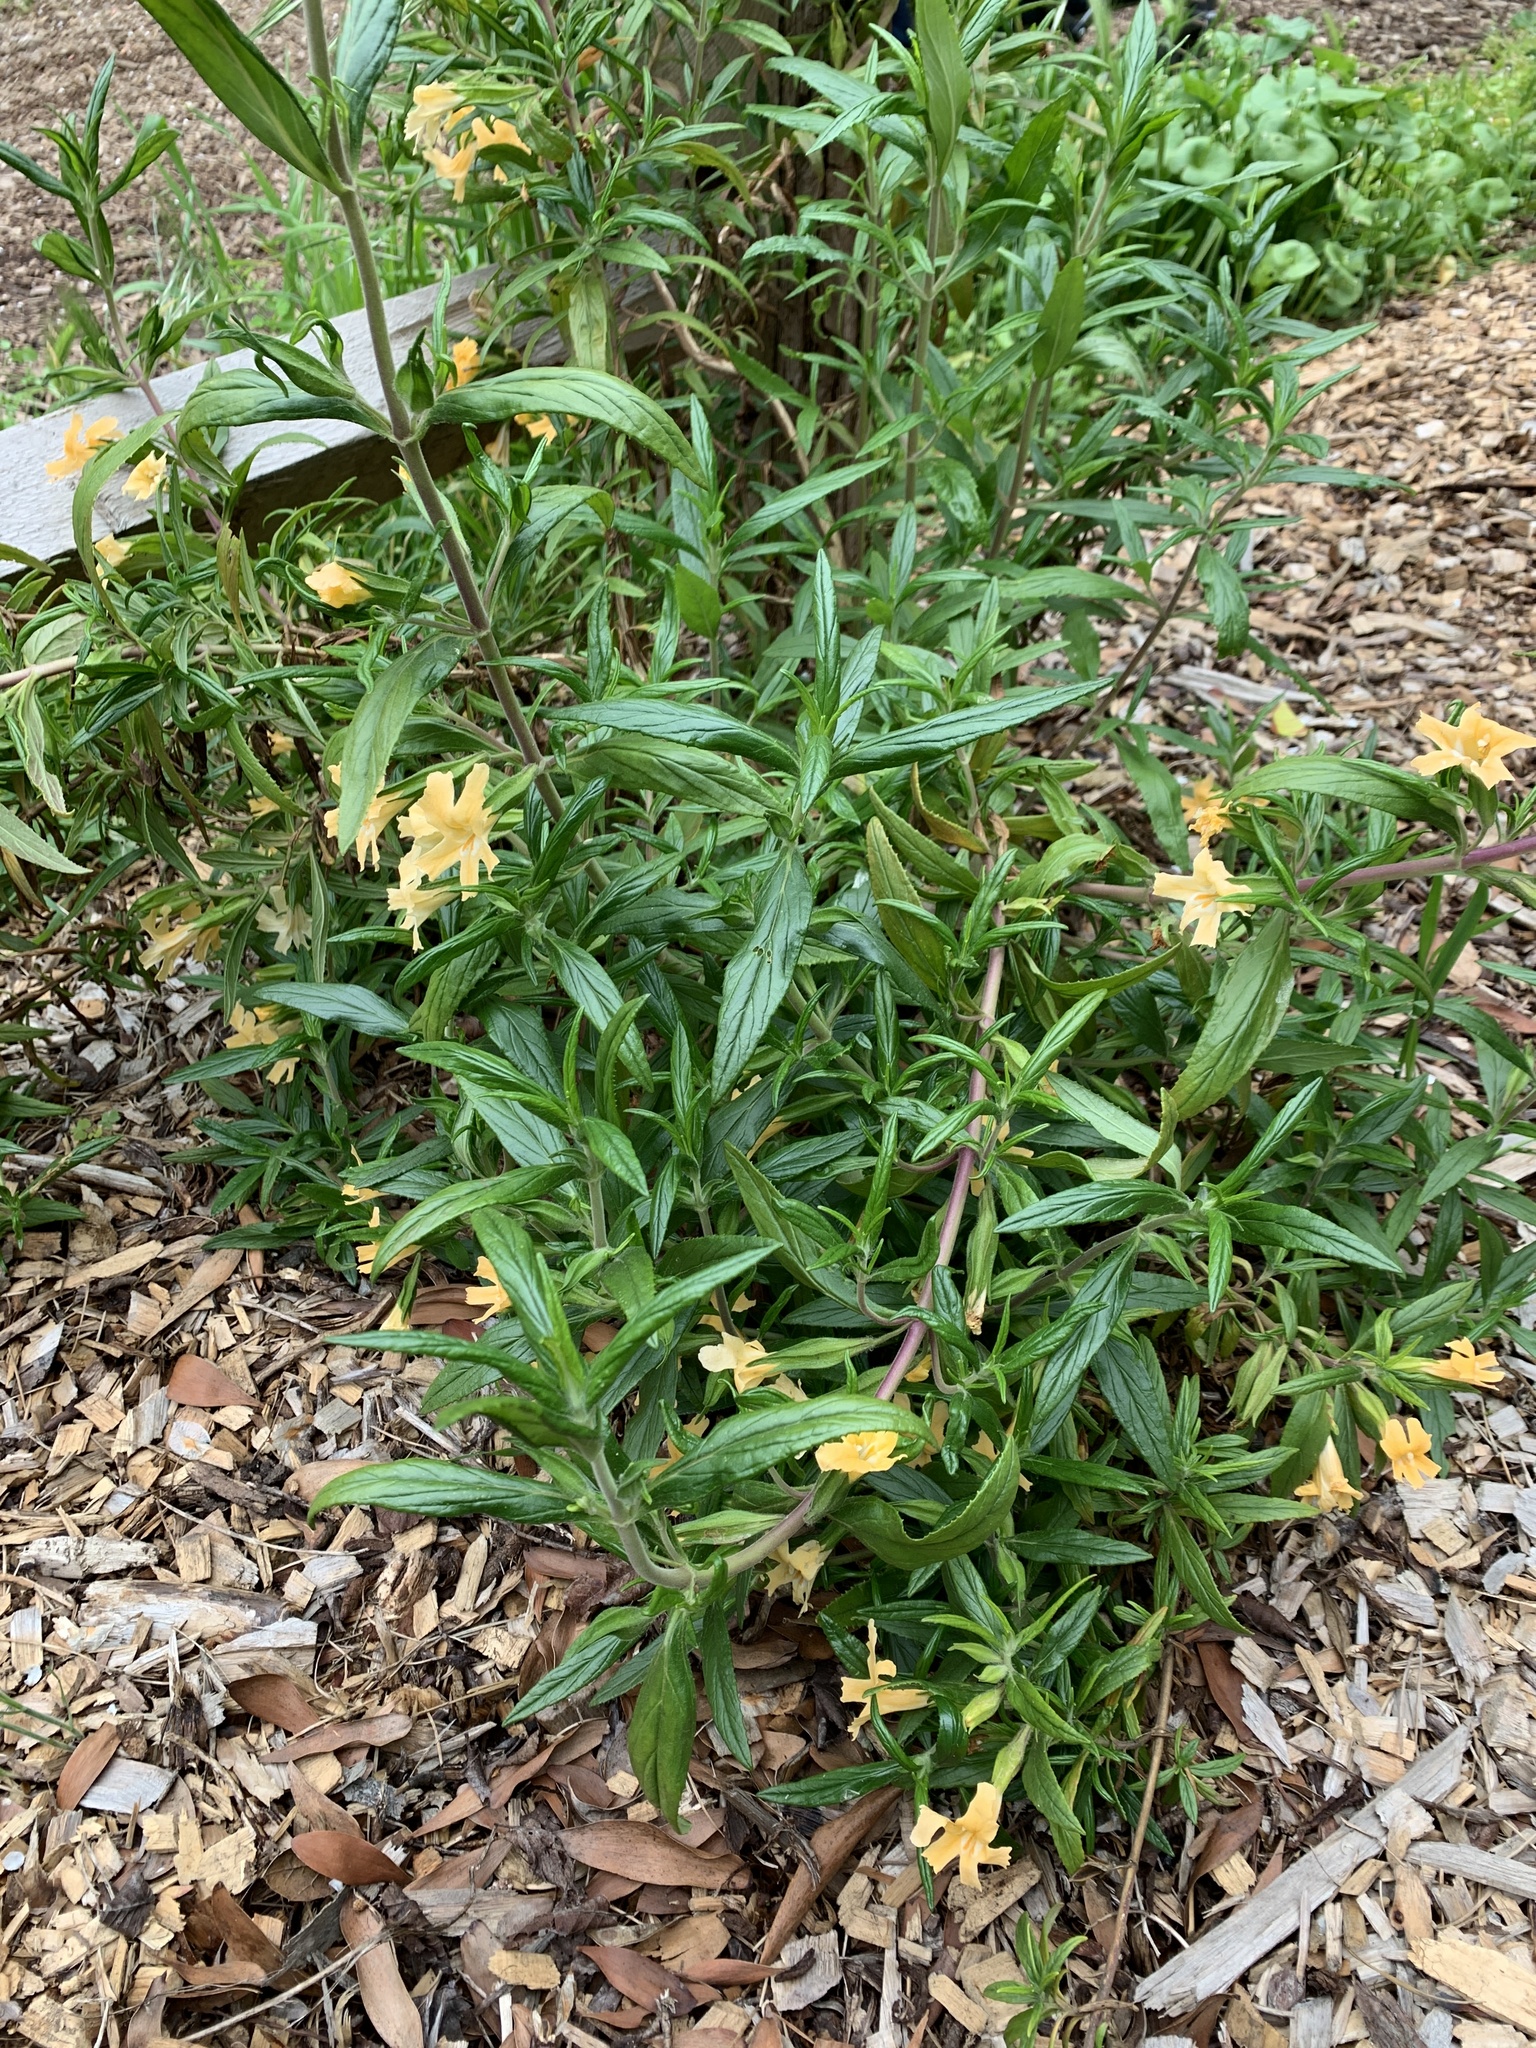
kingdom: Plantae
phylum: Tracheophyta
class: Magnoliopsida
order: Lamiales
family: Phrymaceae
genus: Diplacus
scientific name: Diplacus aurantiacus
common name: Bush monkey-flower
